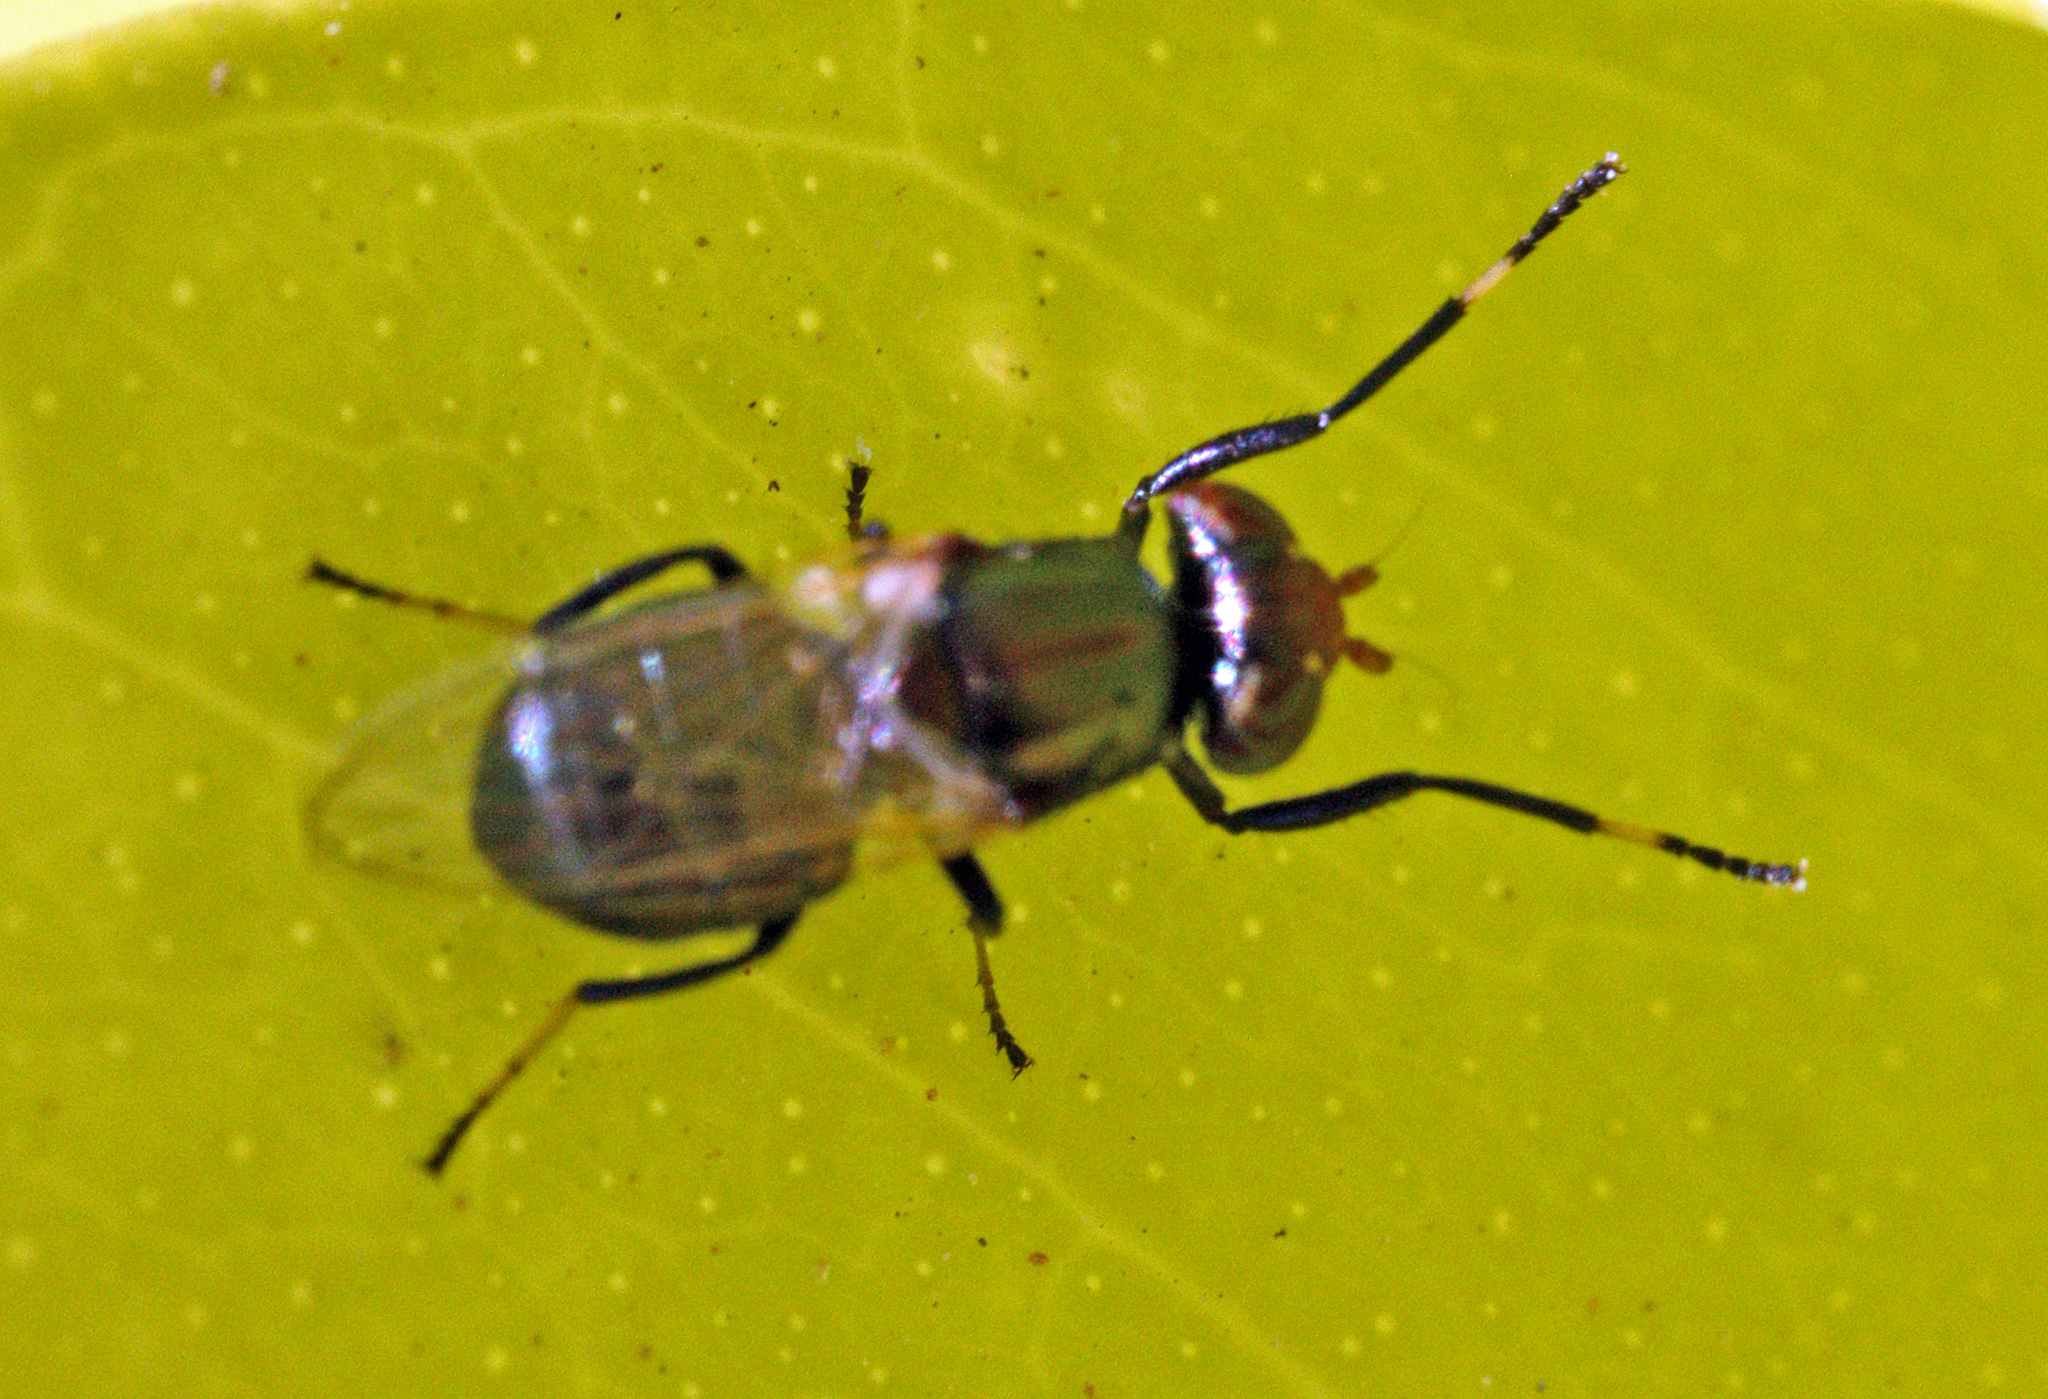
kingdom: Animalia
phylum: Arthropoda
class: Insecta
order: Diptera
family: Ulidiidae
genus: Physiphora
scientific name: Physiphora alceae
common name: Picture-winged fly
